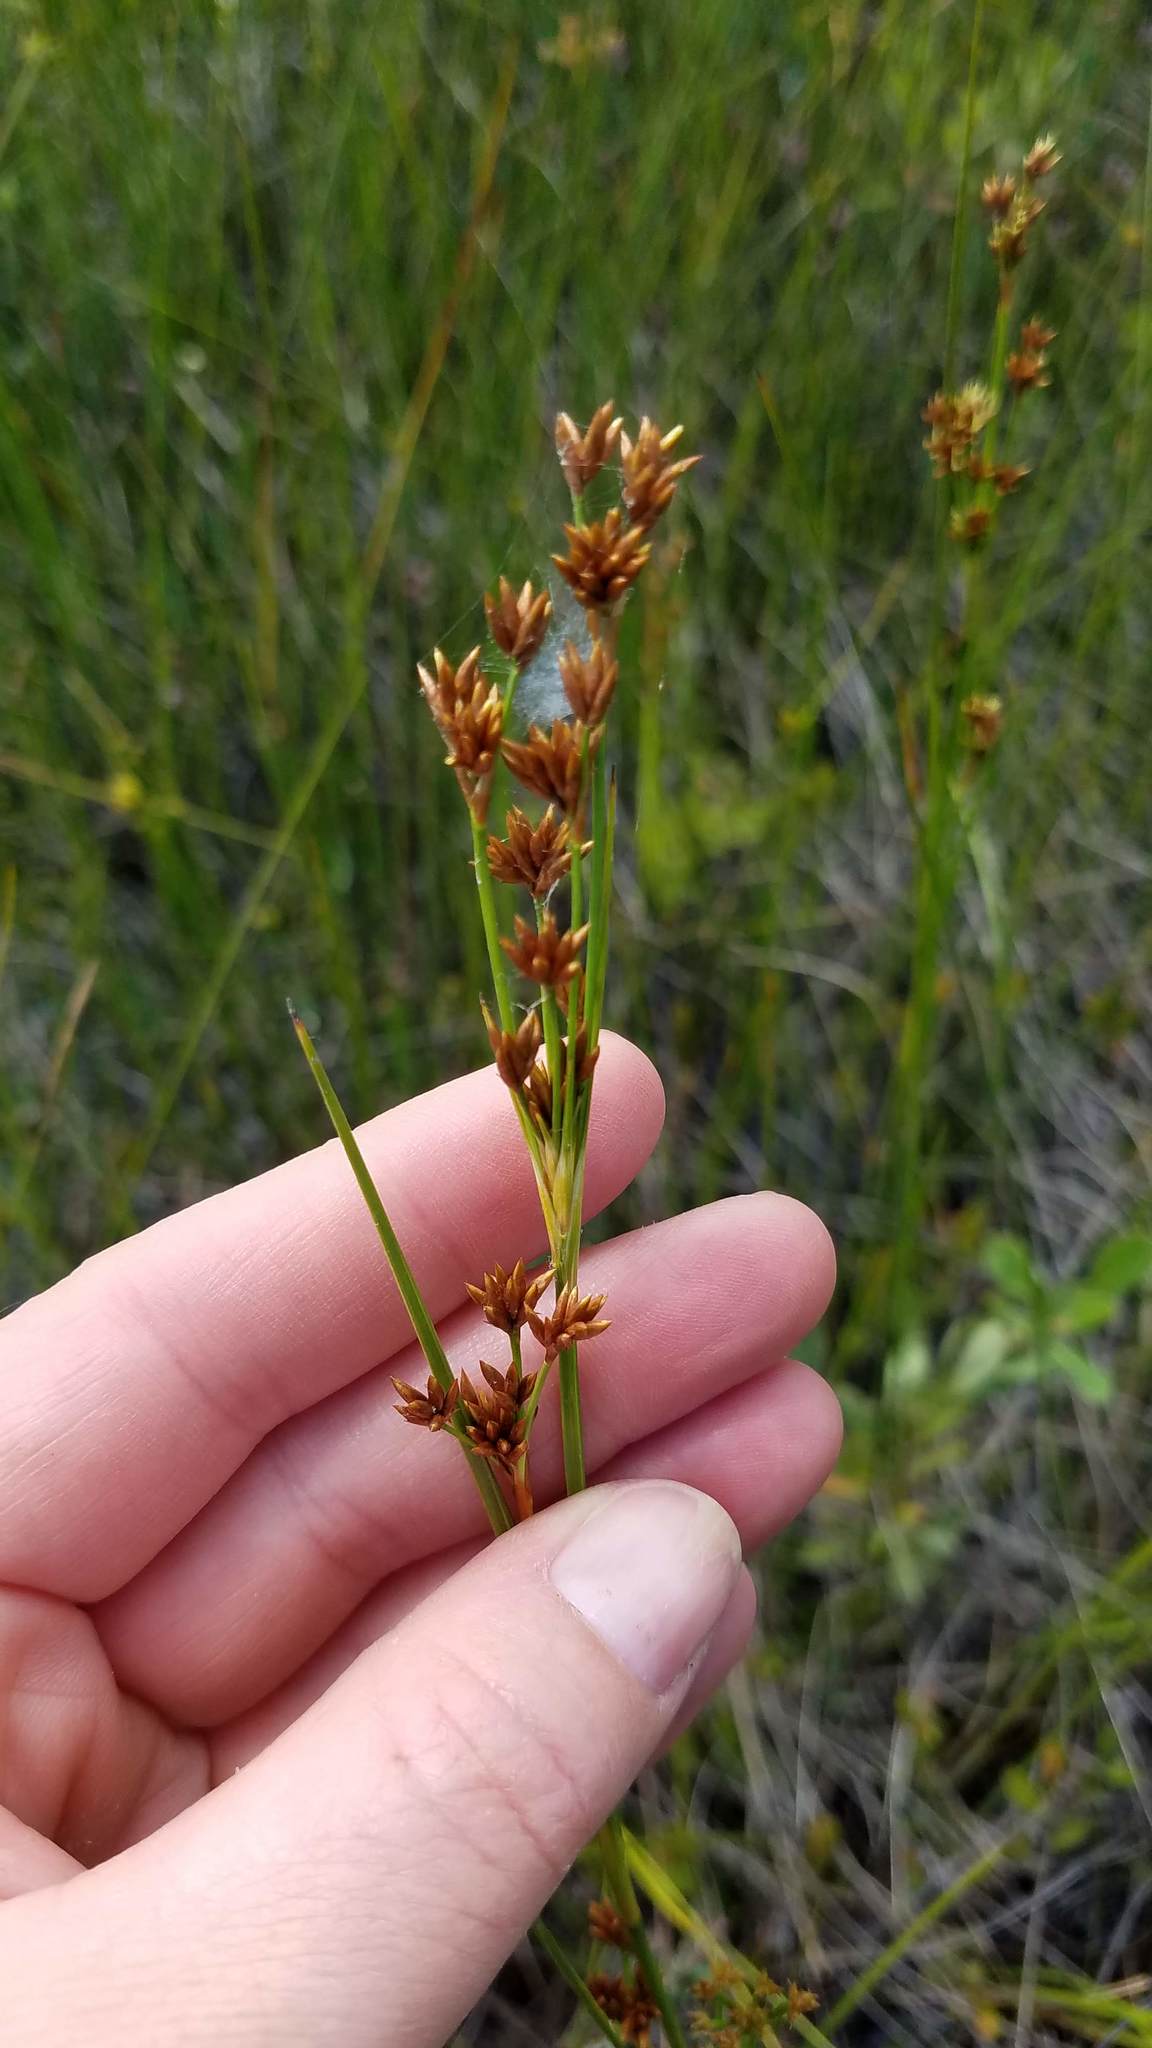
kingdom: Plantae
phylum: Tracheophyta
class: Liliopsida
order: Poales
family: Cyperaceae
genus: Cladium
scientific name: Cladium mariscoides
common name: Smooth sawgrass
